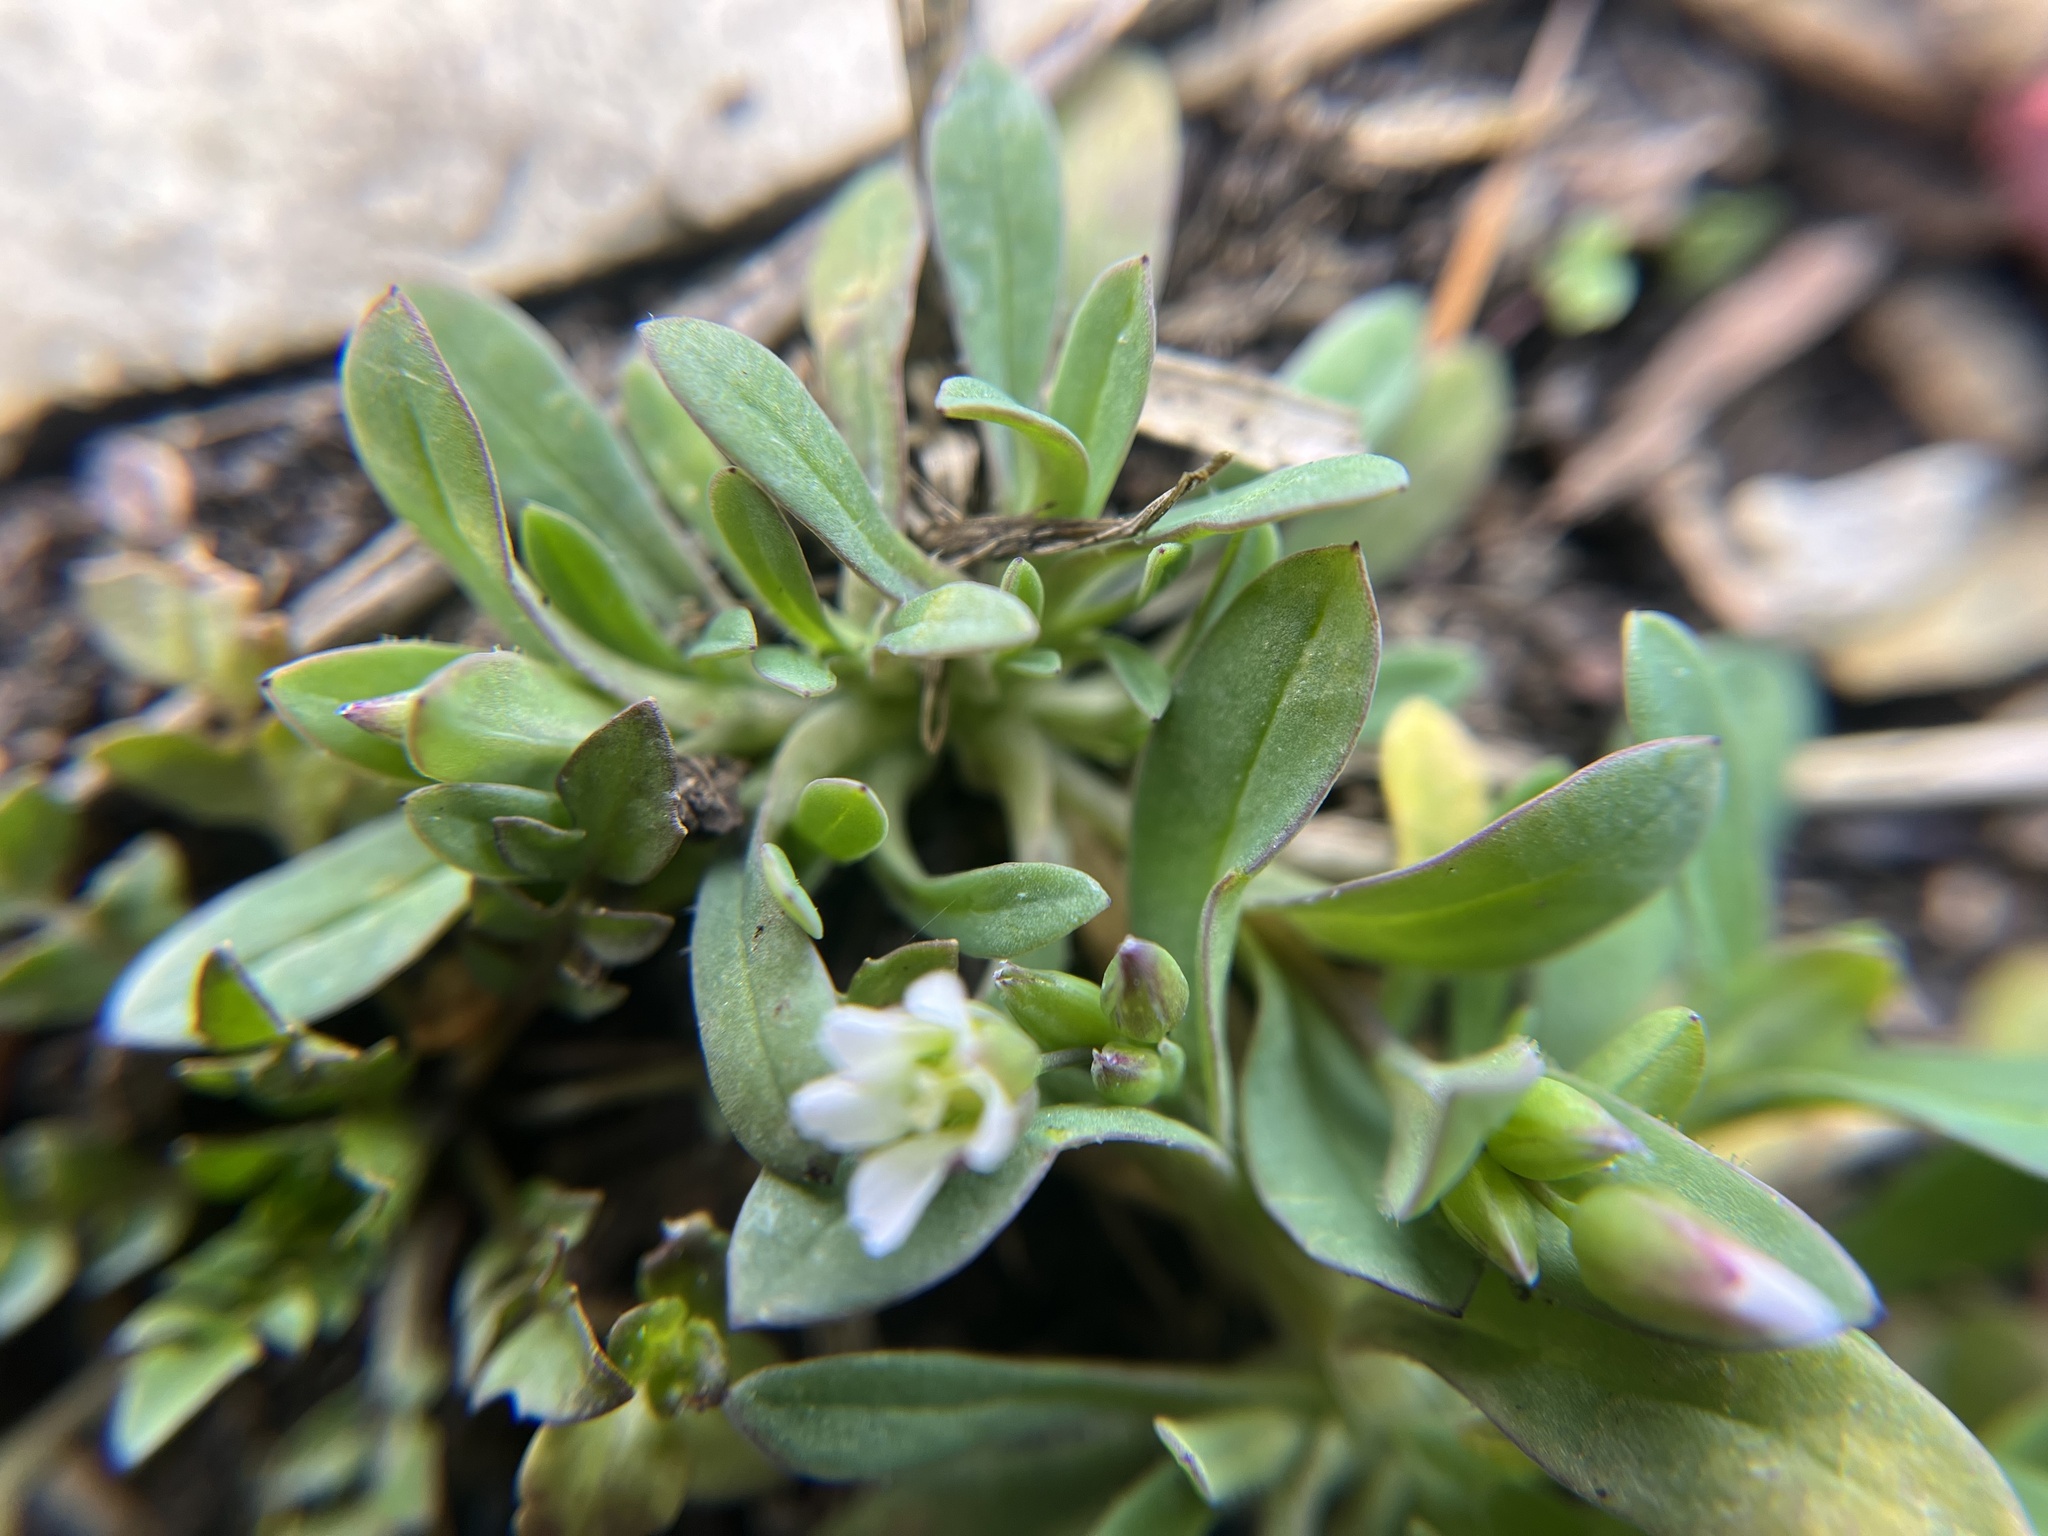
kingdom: Plantae
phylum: Tracheophyta
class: Magnoliopsida
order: Caryophyllales
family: Caryophyllaceae
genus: Holosteum
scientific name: Holosteum umbellatum
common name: Jagged chickweed
